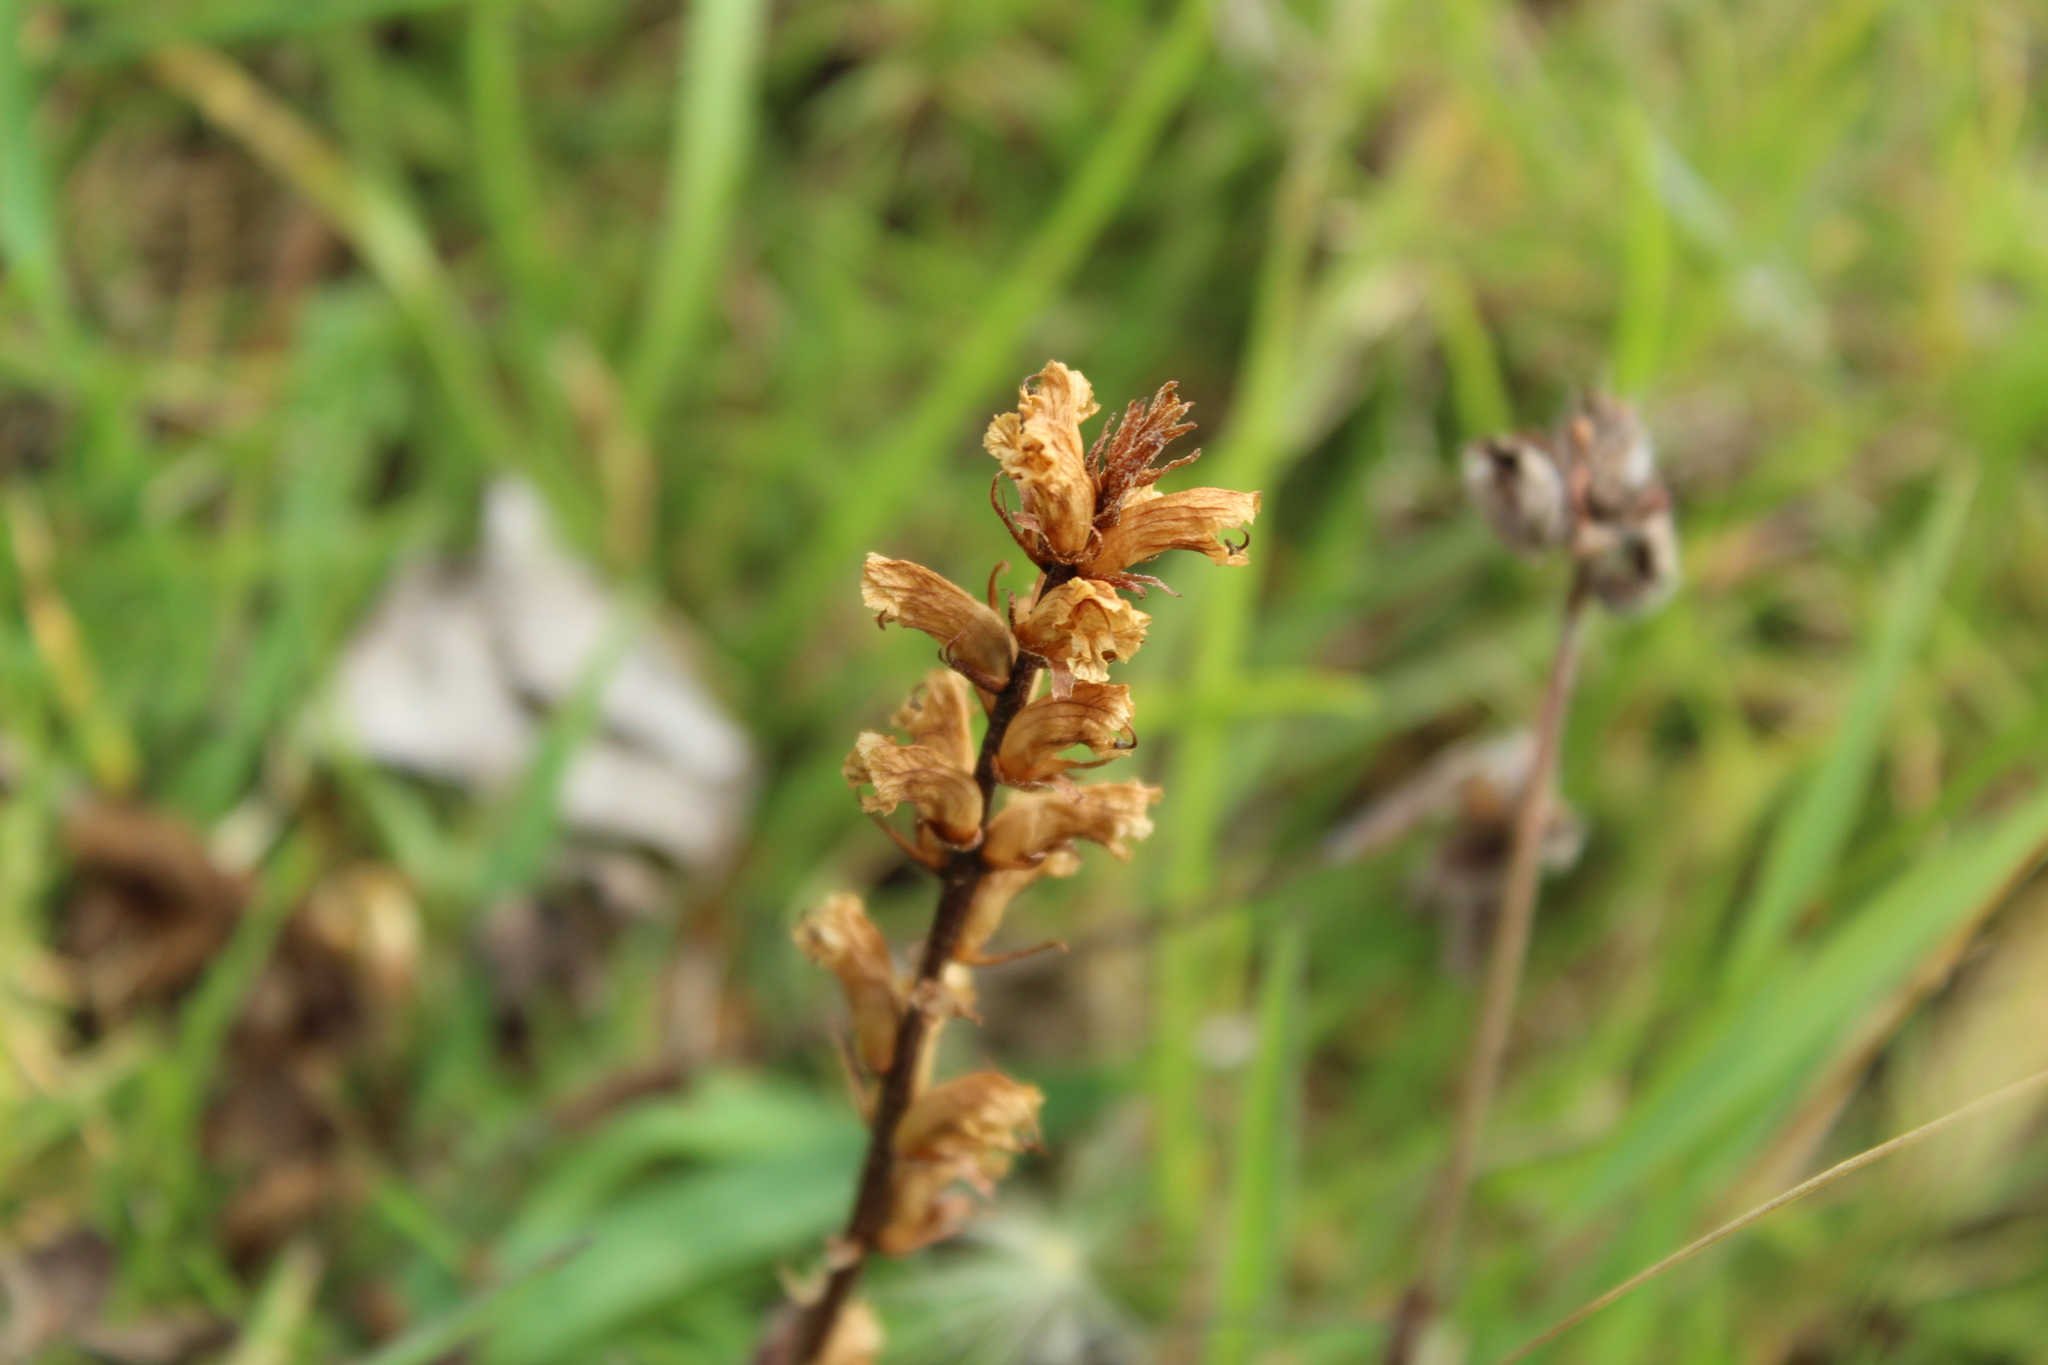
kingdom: Plantae
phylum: Tracheophyta
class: Magnoliopsida
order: Lamiales
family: Orobanchaceae
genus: Orobanche
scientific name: Orobanche minor
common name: Common broomrape
